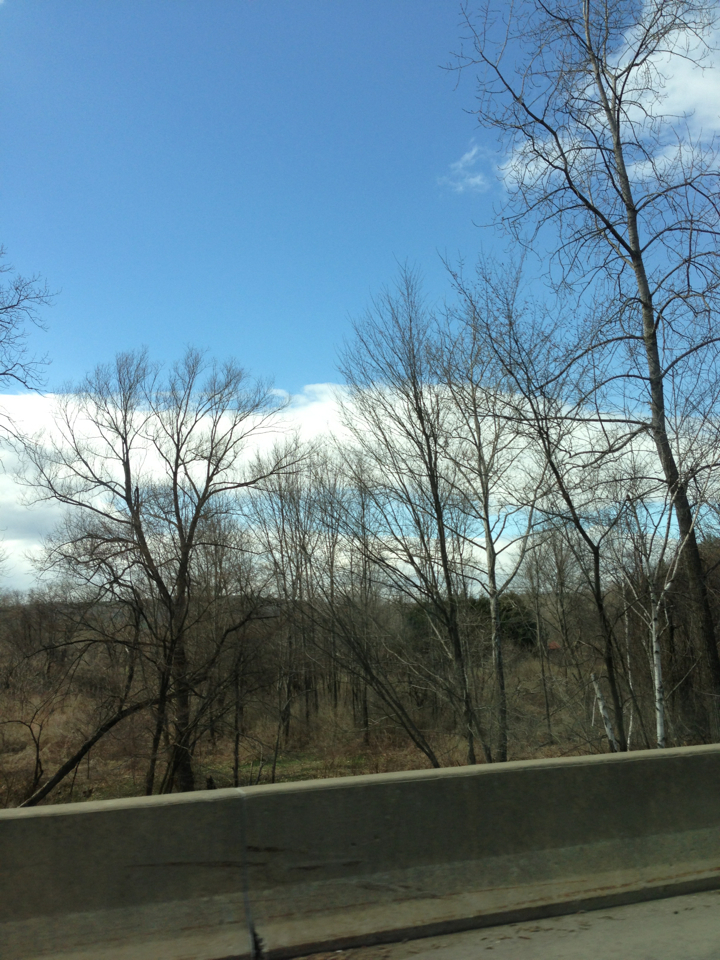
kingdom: Plantae
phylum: Tracheophyta
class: Magnoliopsida
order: Proteales
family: Platanaceae
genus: Platanus
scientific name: Platanus occidentalis
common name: American sycamore
